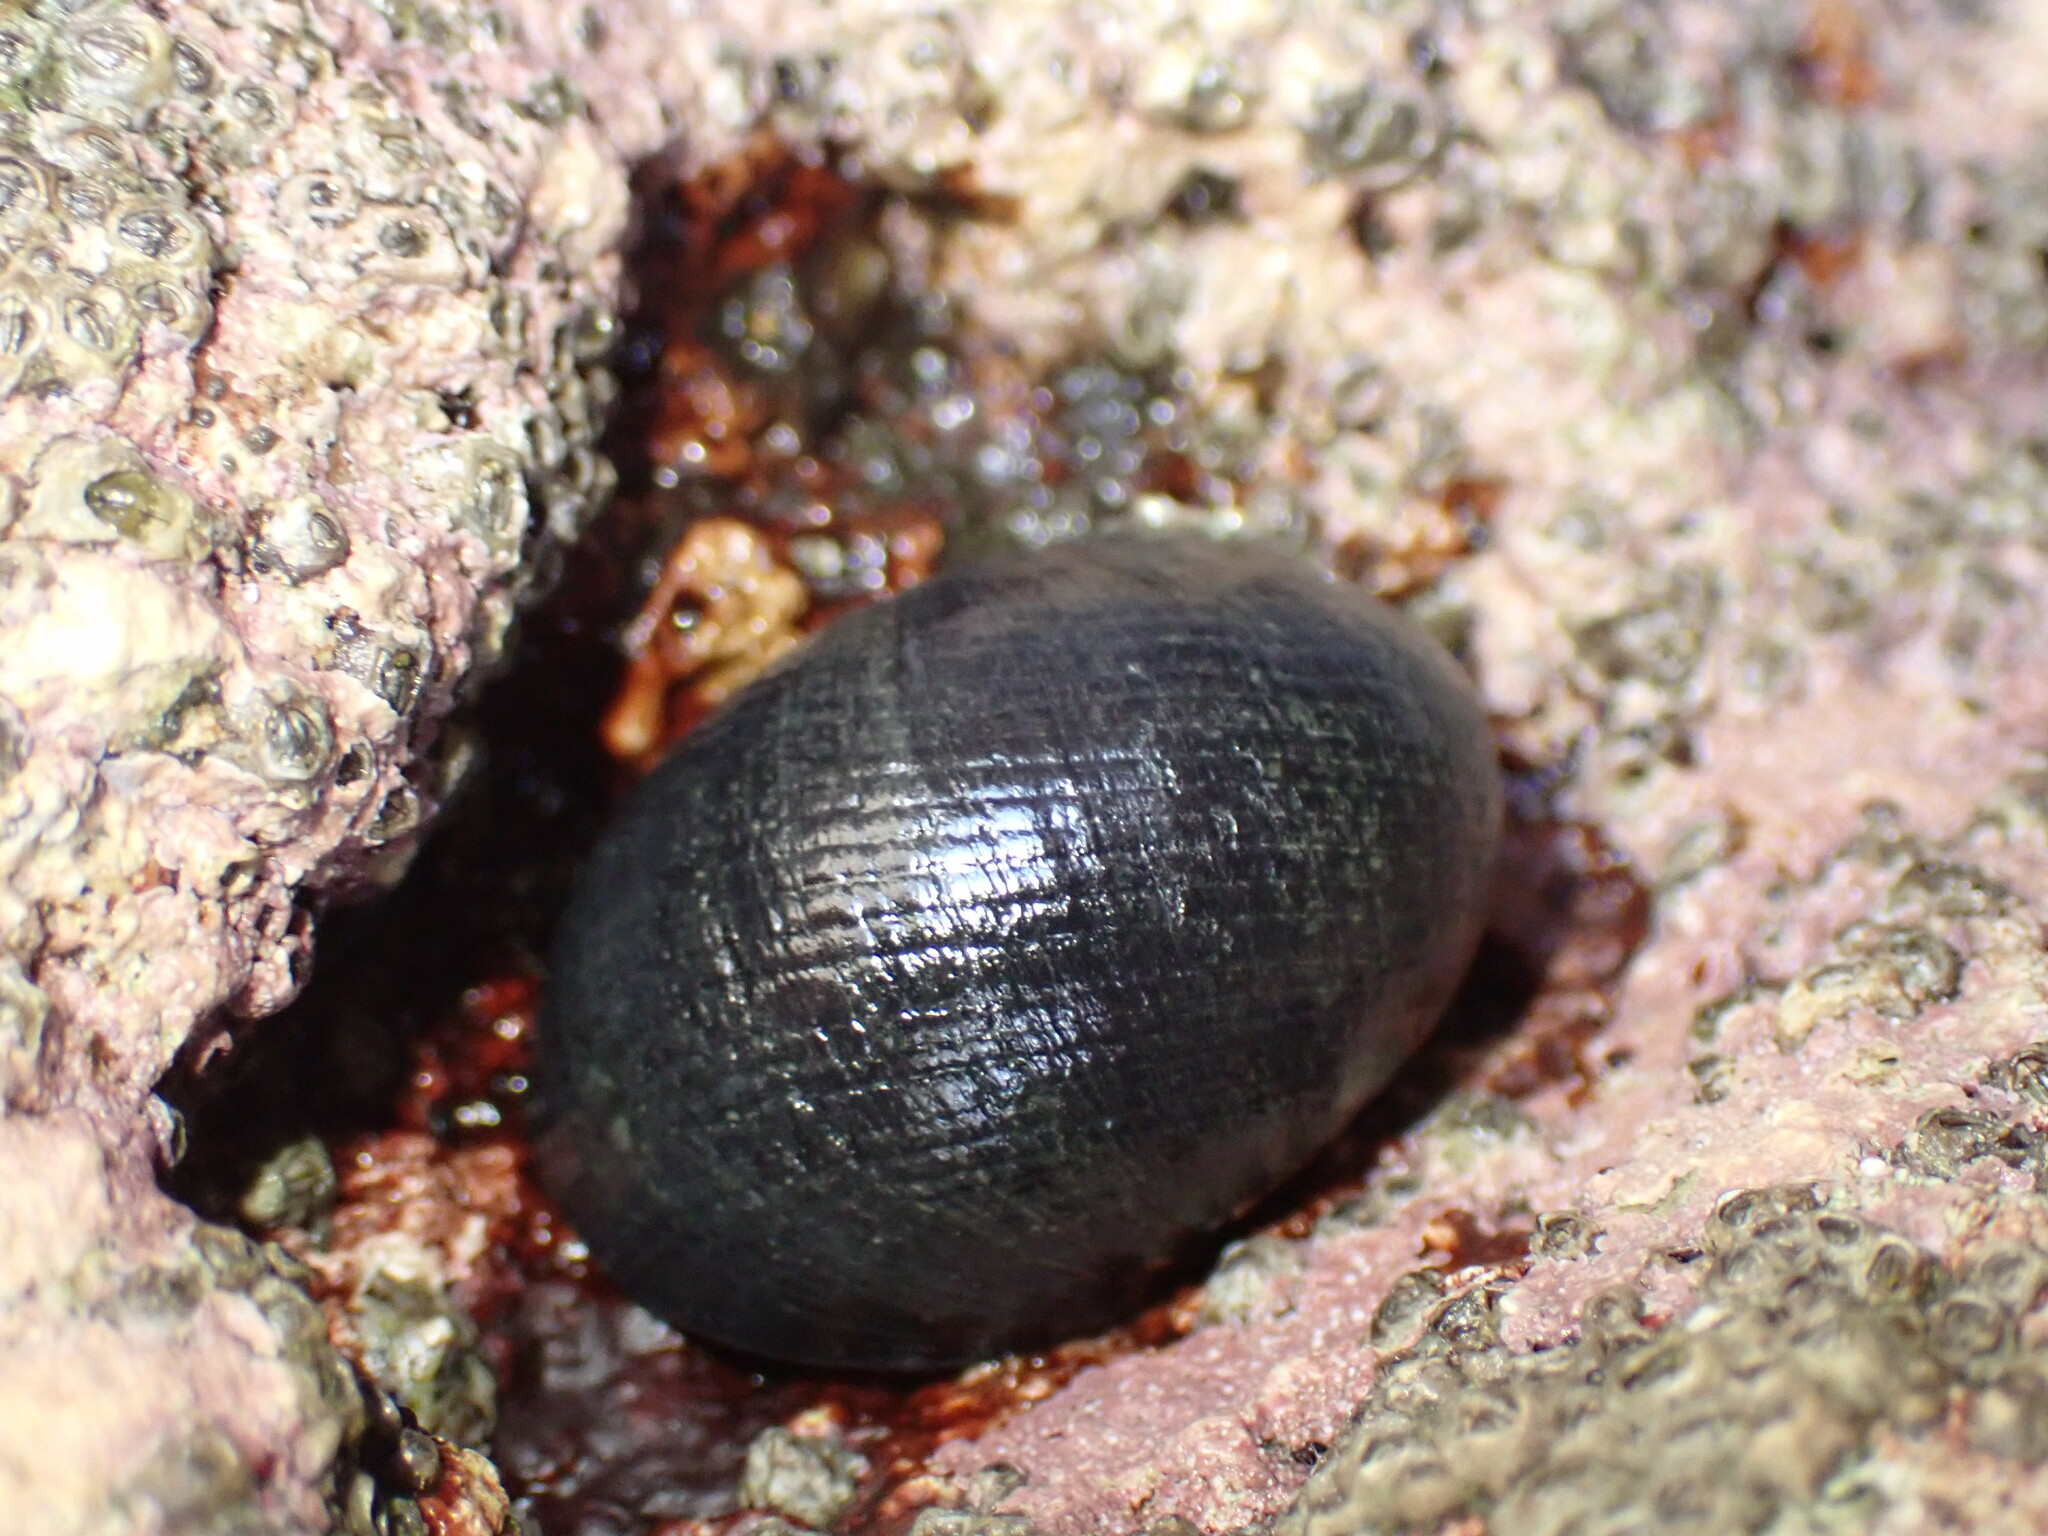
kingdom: Animalia
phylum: Mollusca
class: Gastropoda
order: Cycloneritida
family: Neritidae
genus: Nerita
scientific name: Nerita melanotragus
